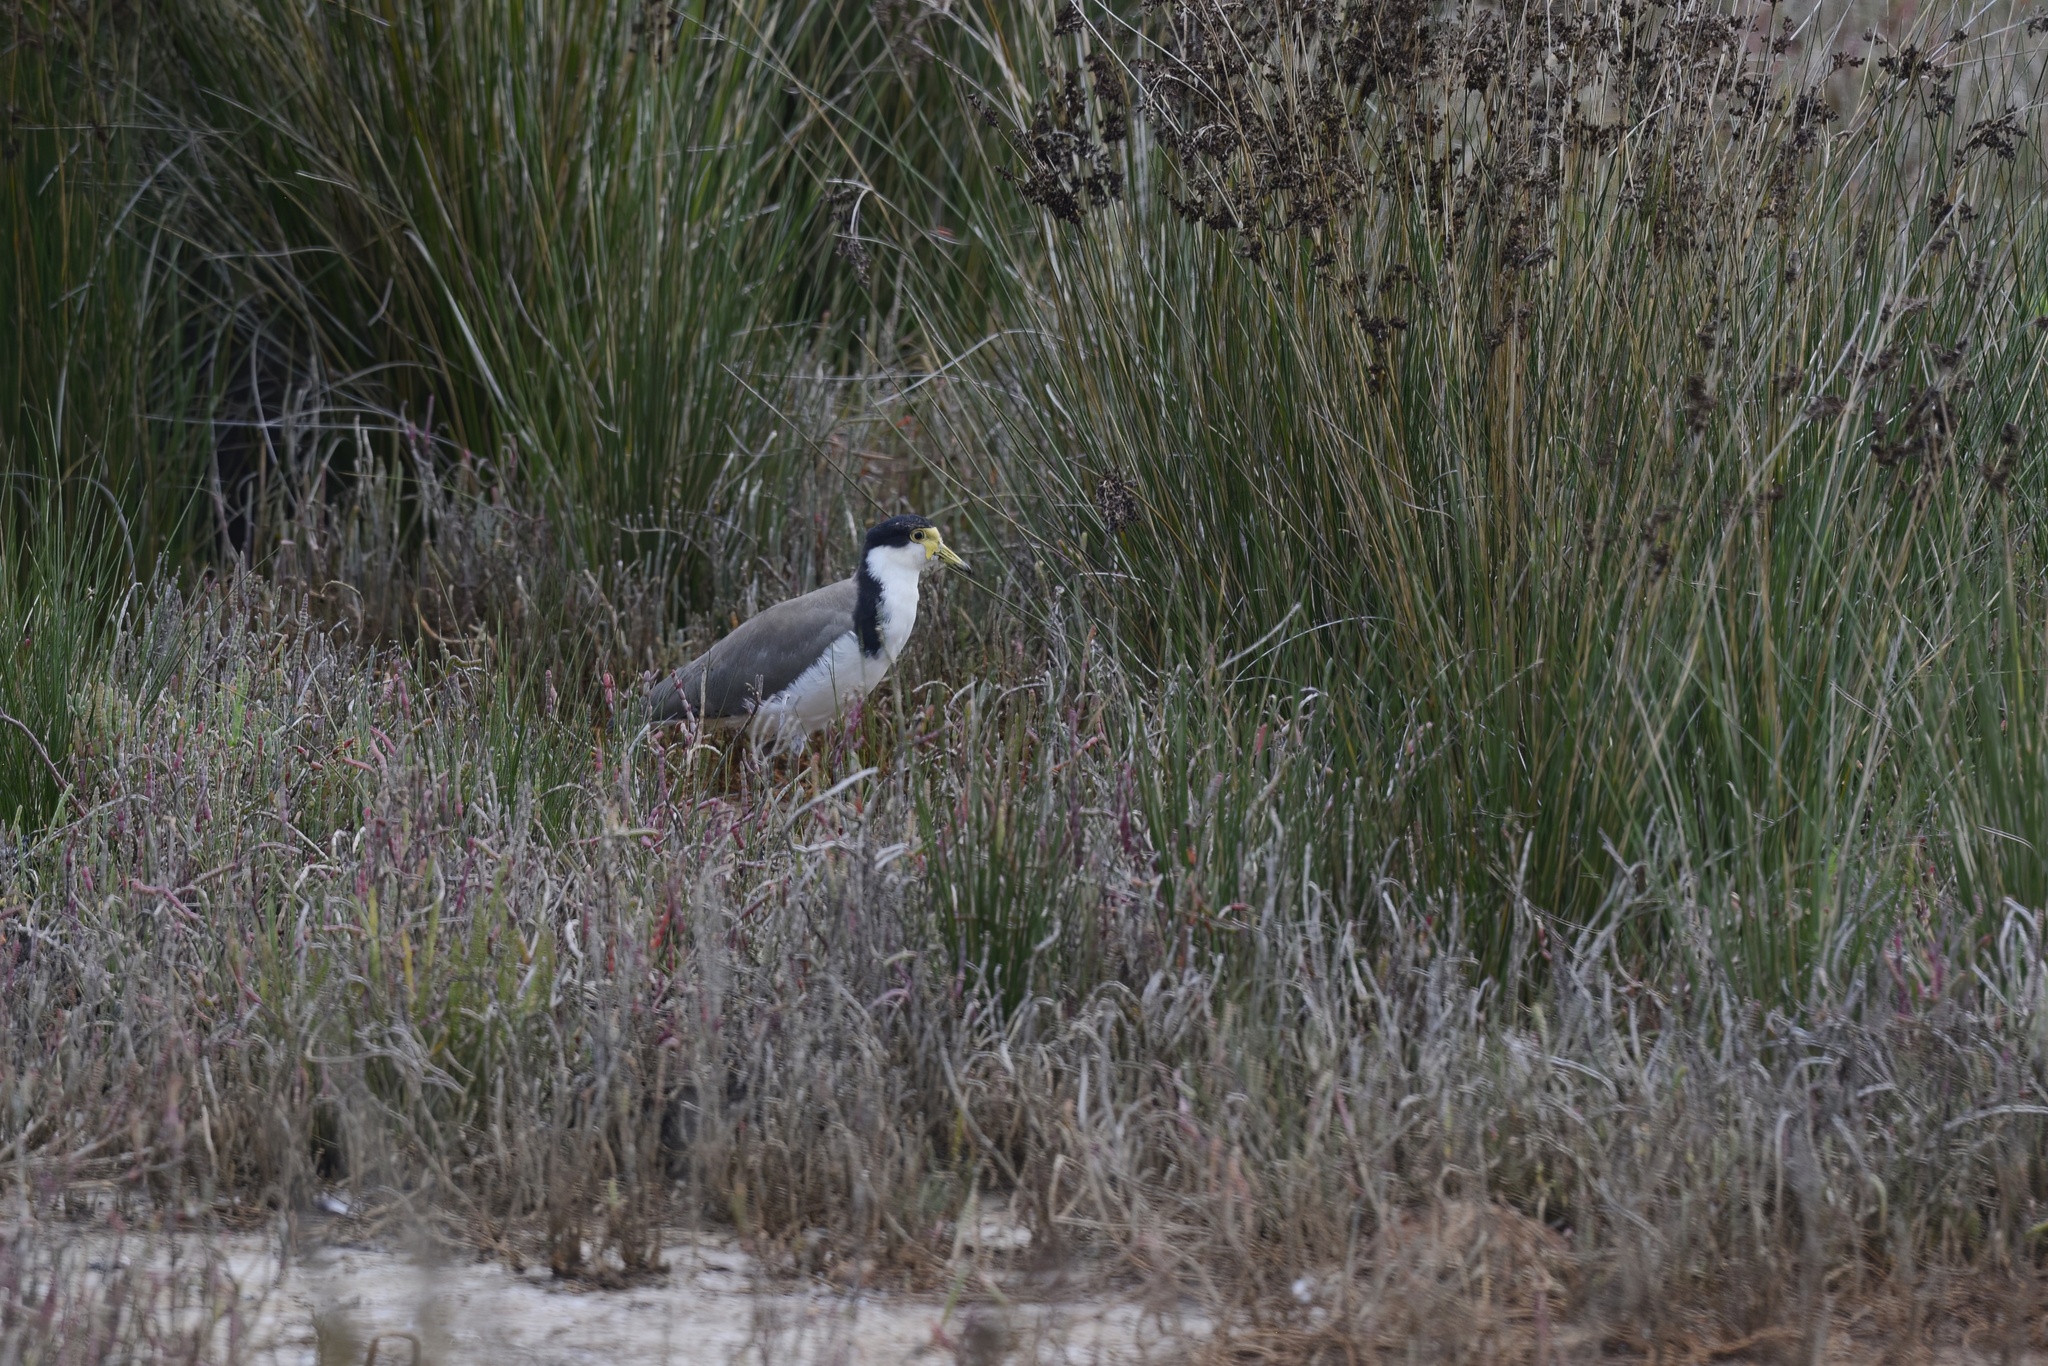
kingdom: Animalia
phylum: Chordata
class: Aves
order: Charadriiformes
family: Charadriidae
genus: Vanellus
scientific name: Vanellus miles
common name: Masked lapwing
